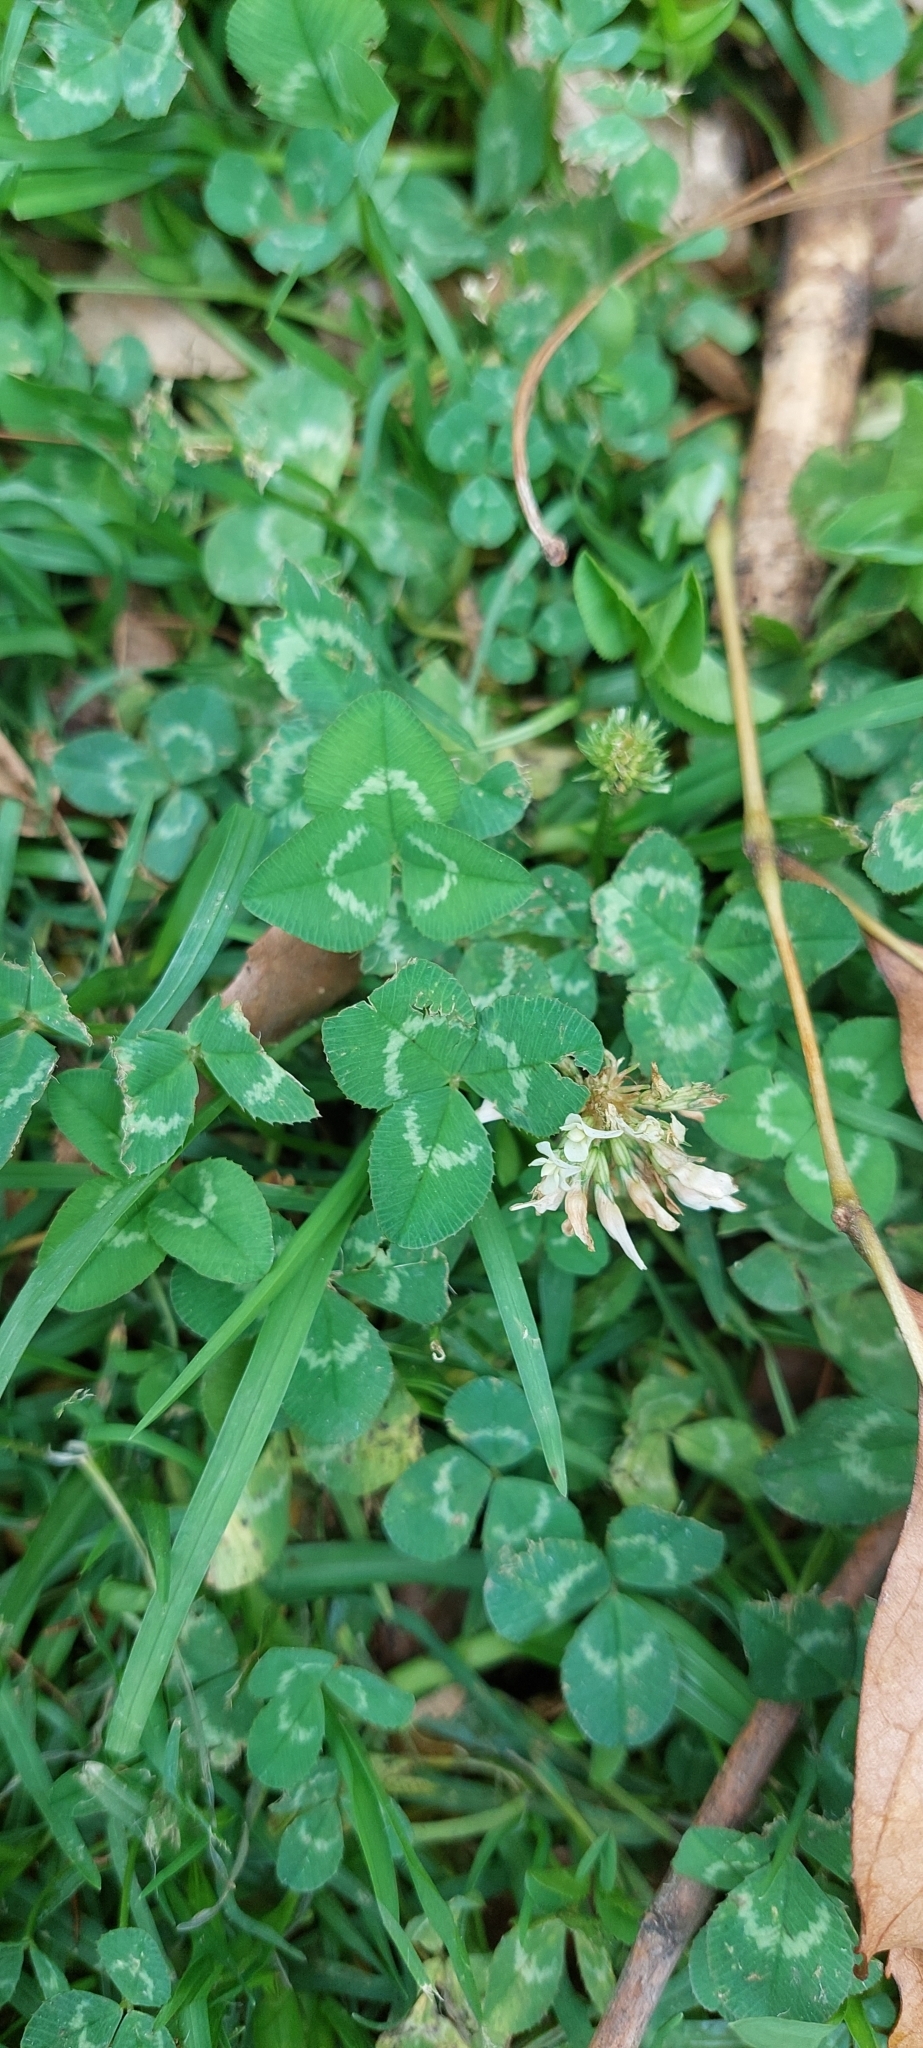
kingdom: Plantae
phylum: Tracheophyta
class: Magnoliopsida
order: Fabales
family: Fabaceae
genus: Trifolium
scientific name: Trifolium repens
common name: White clover
